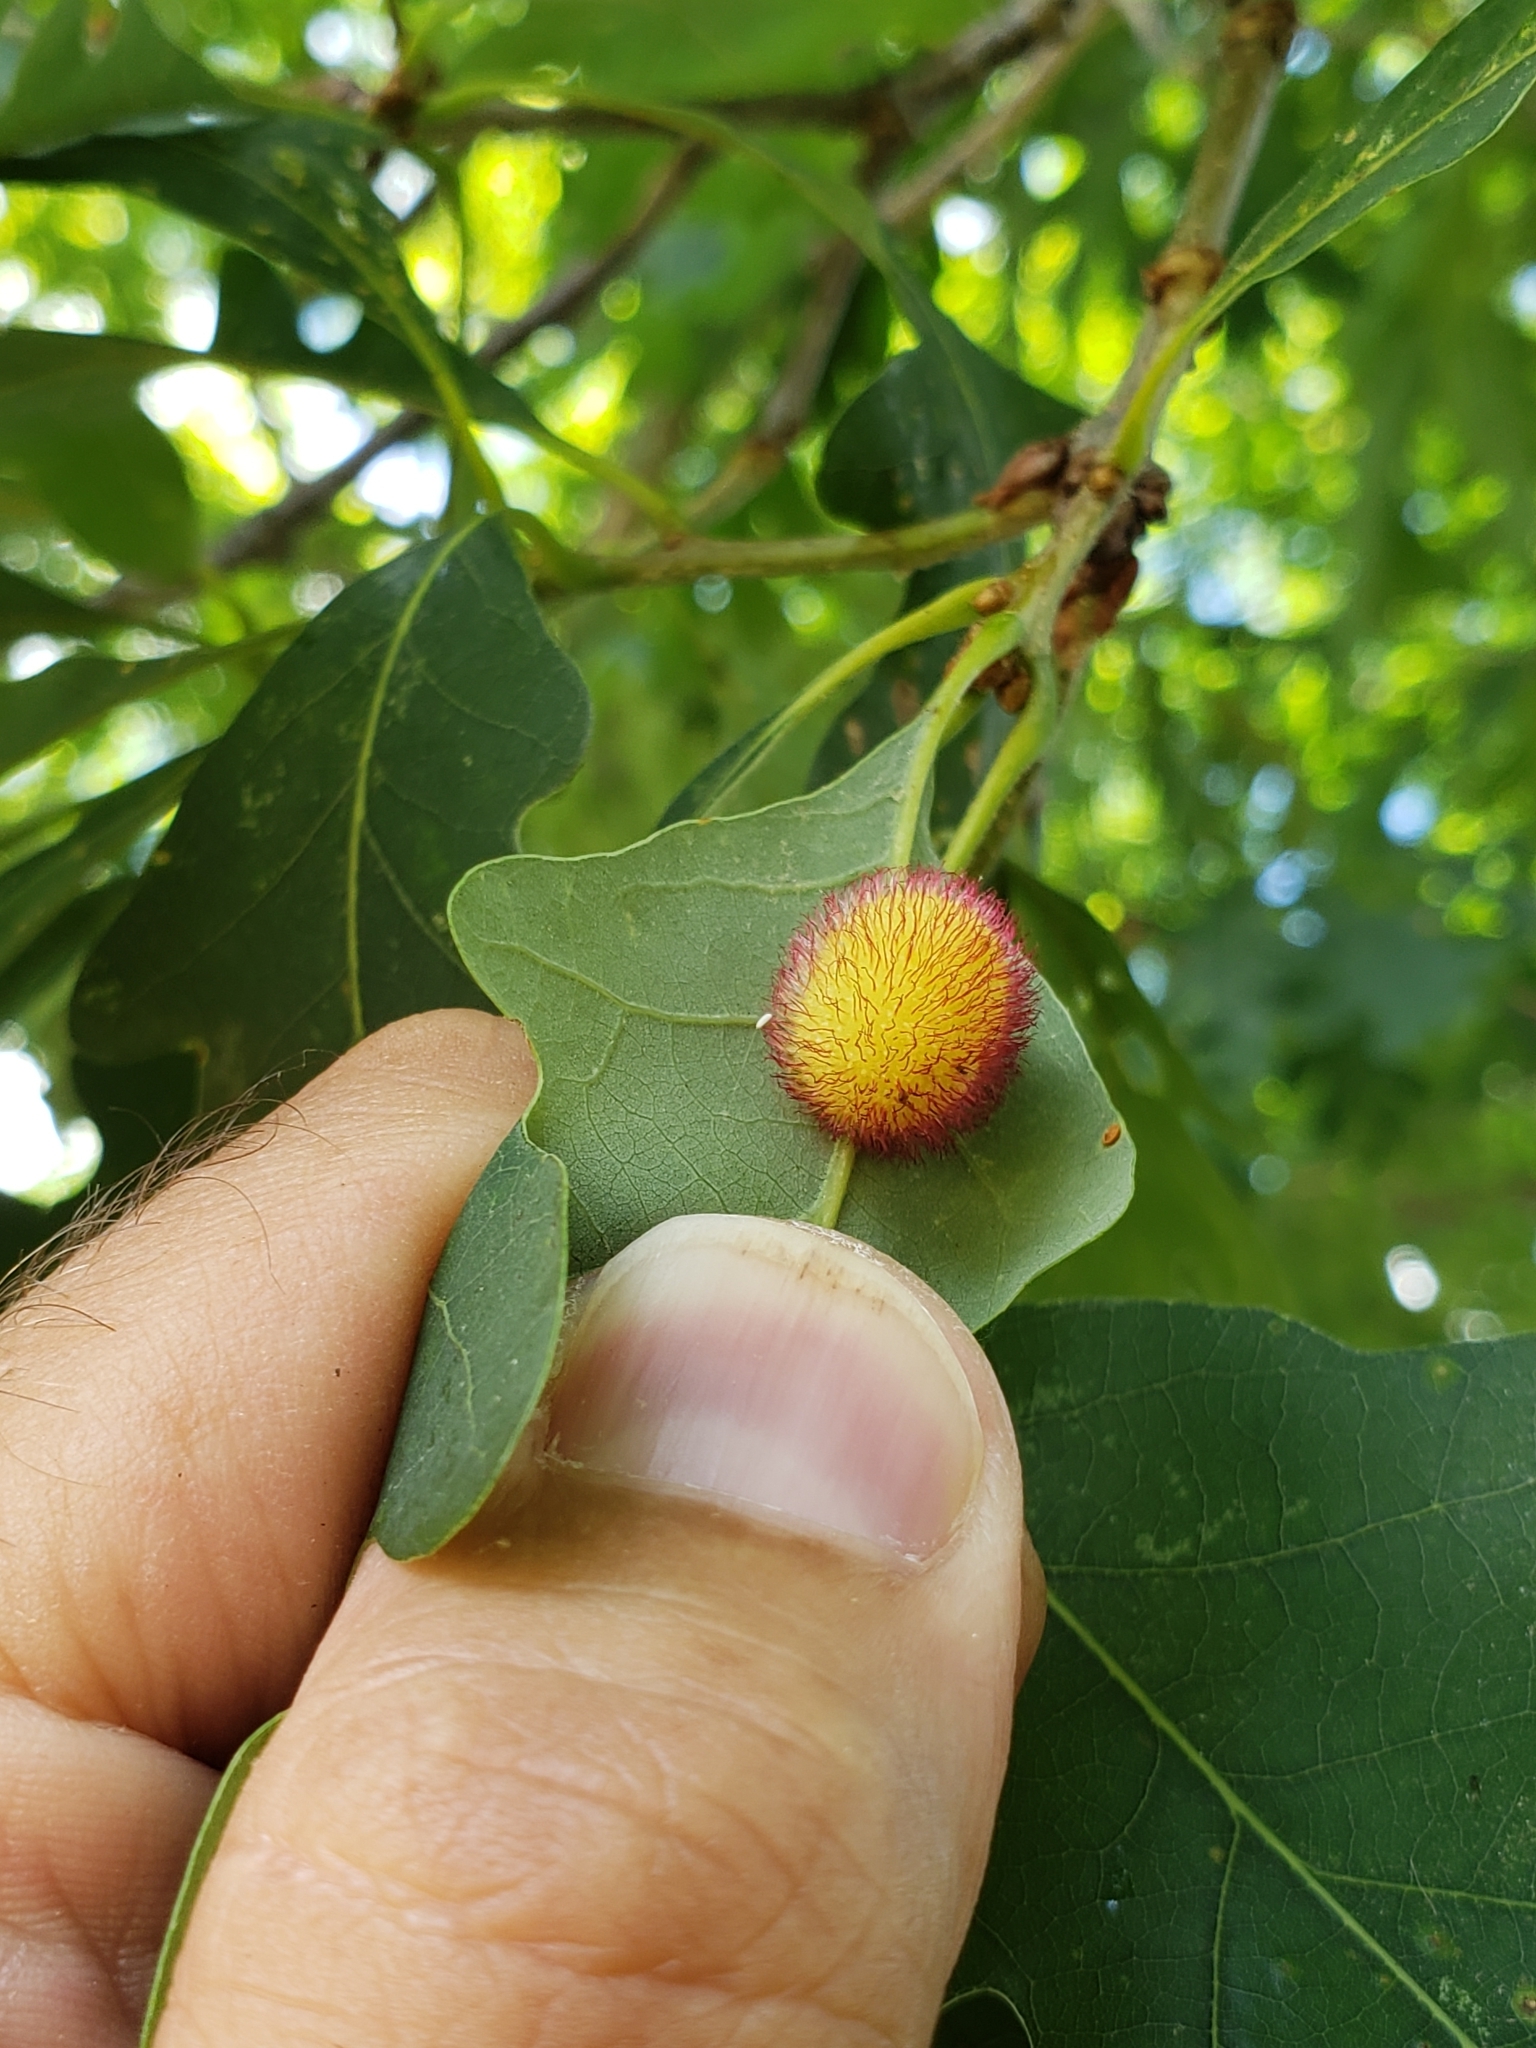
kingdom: Animalia
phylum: Arthropoda
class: Insecta
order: Hymenoptera
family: Cynipidae
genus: Acraspis
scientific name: Acraspis erinacei
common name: Hedgehog gall wasp
